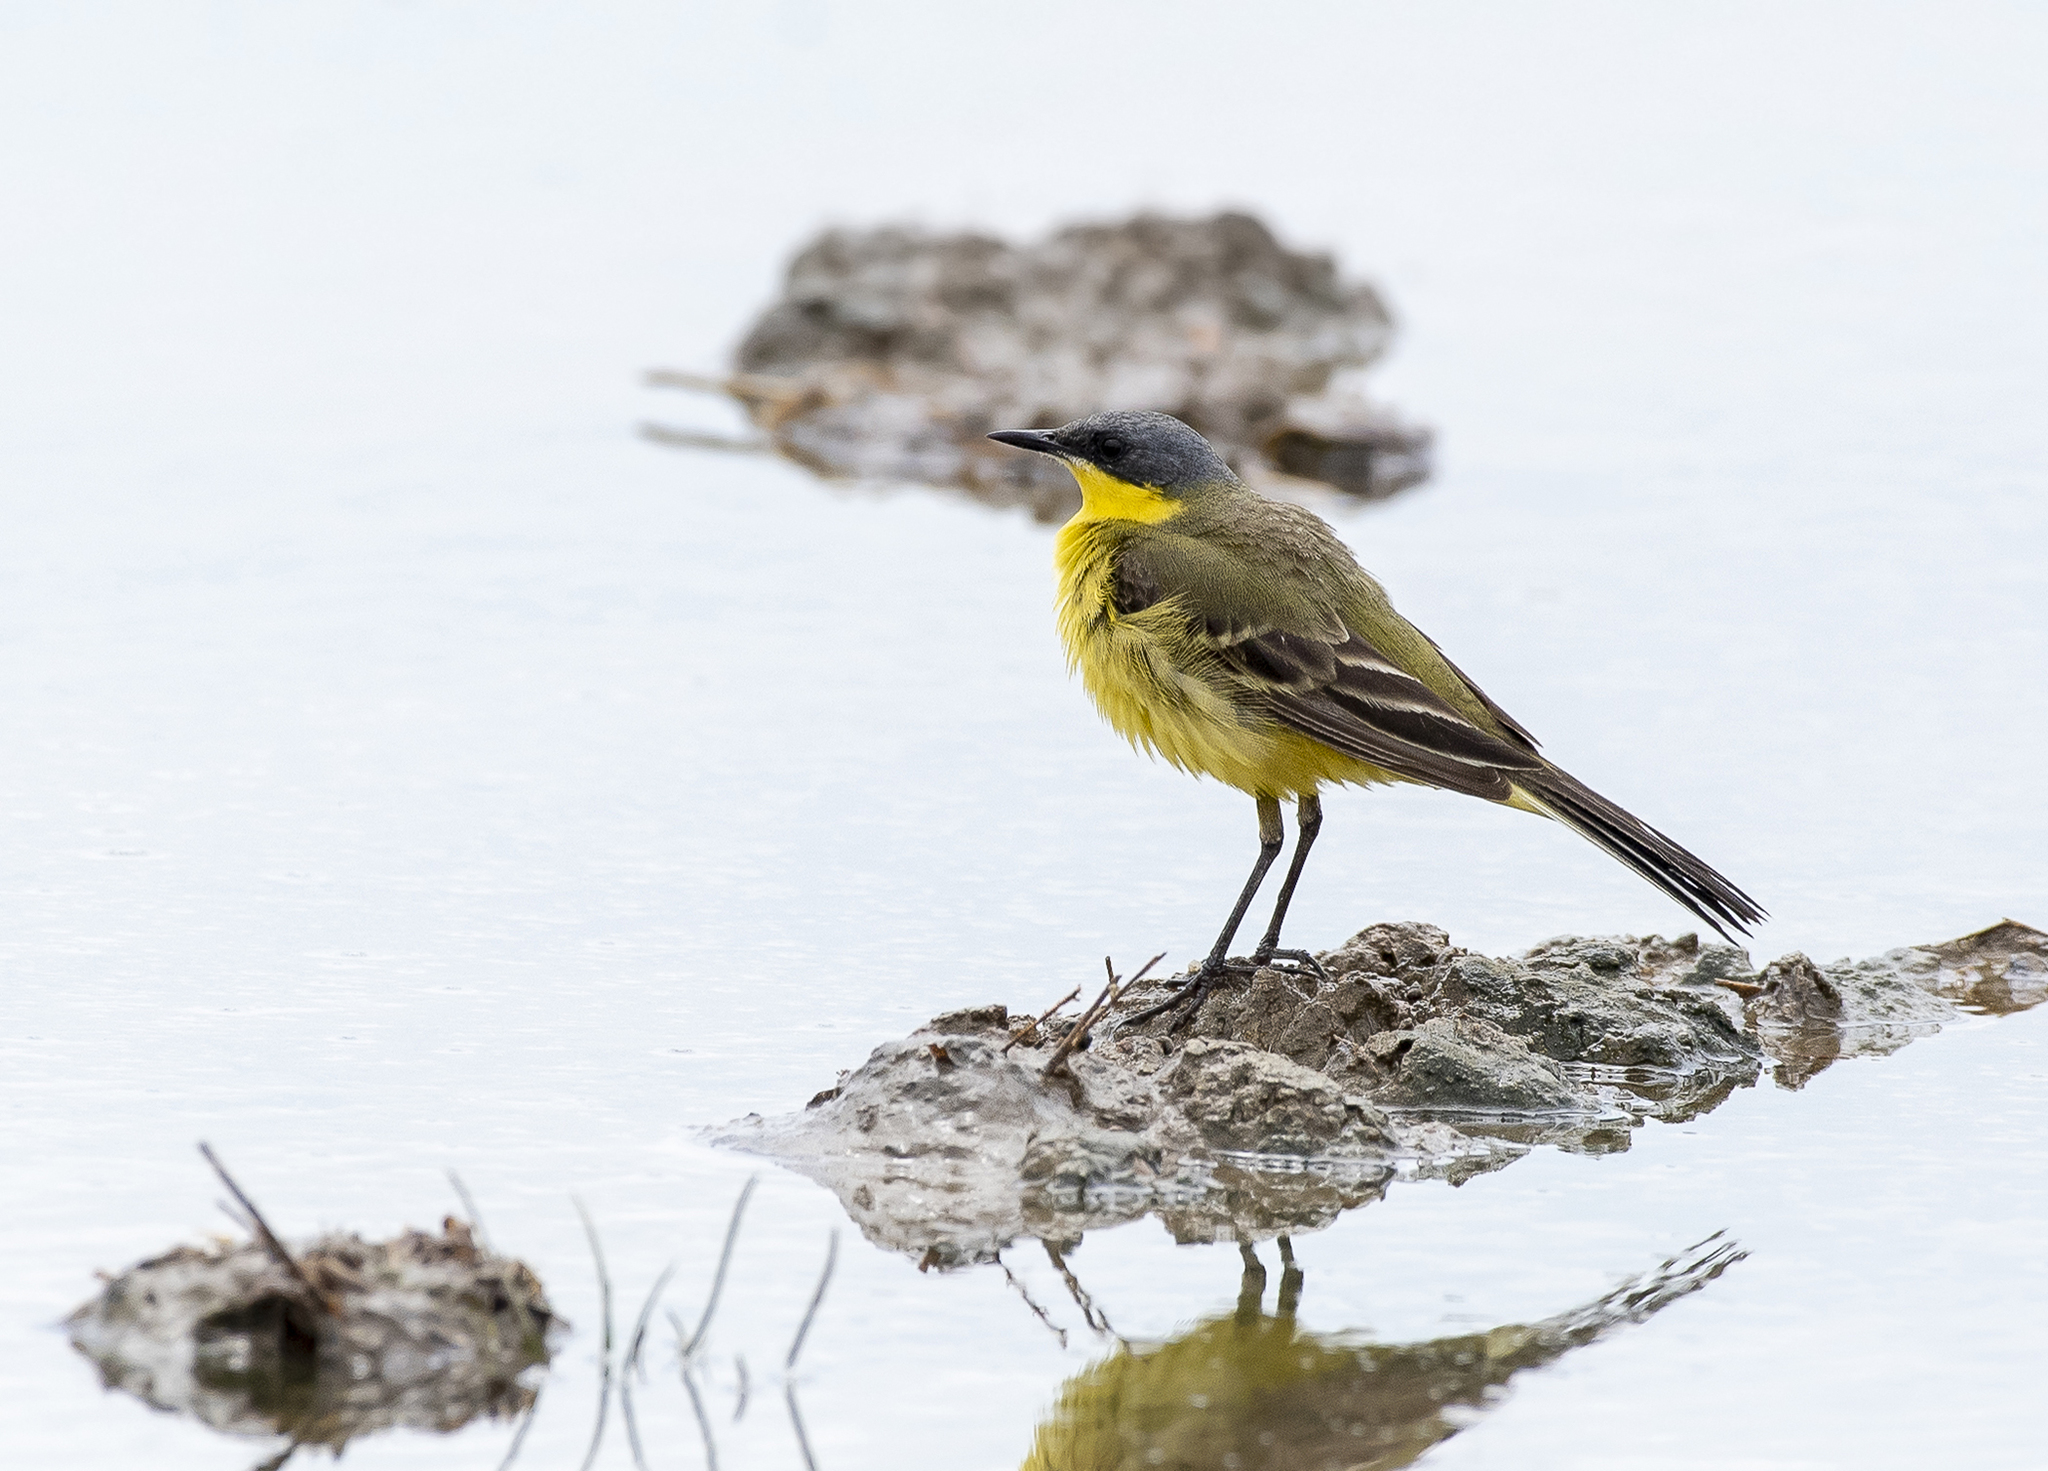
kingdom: Animalia
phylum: Chordata
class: Aves
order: Passeriformes
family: Motacillidae
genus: Motacilla
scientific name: Motacilla tschutschensis
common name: Eastern yellow wagtail
